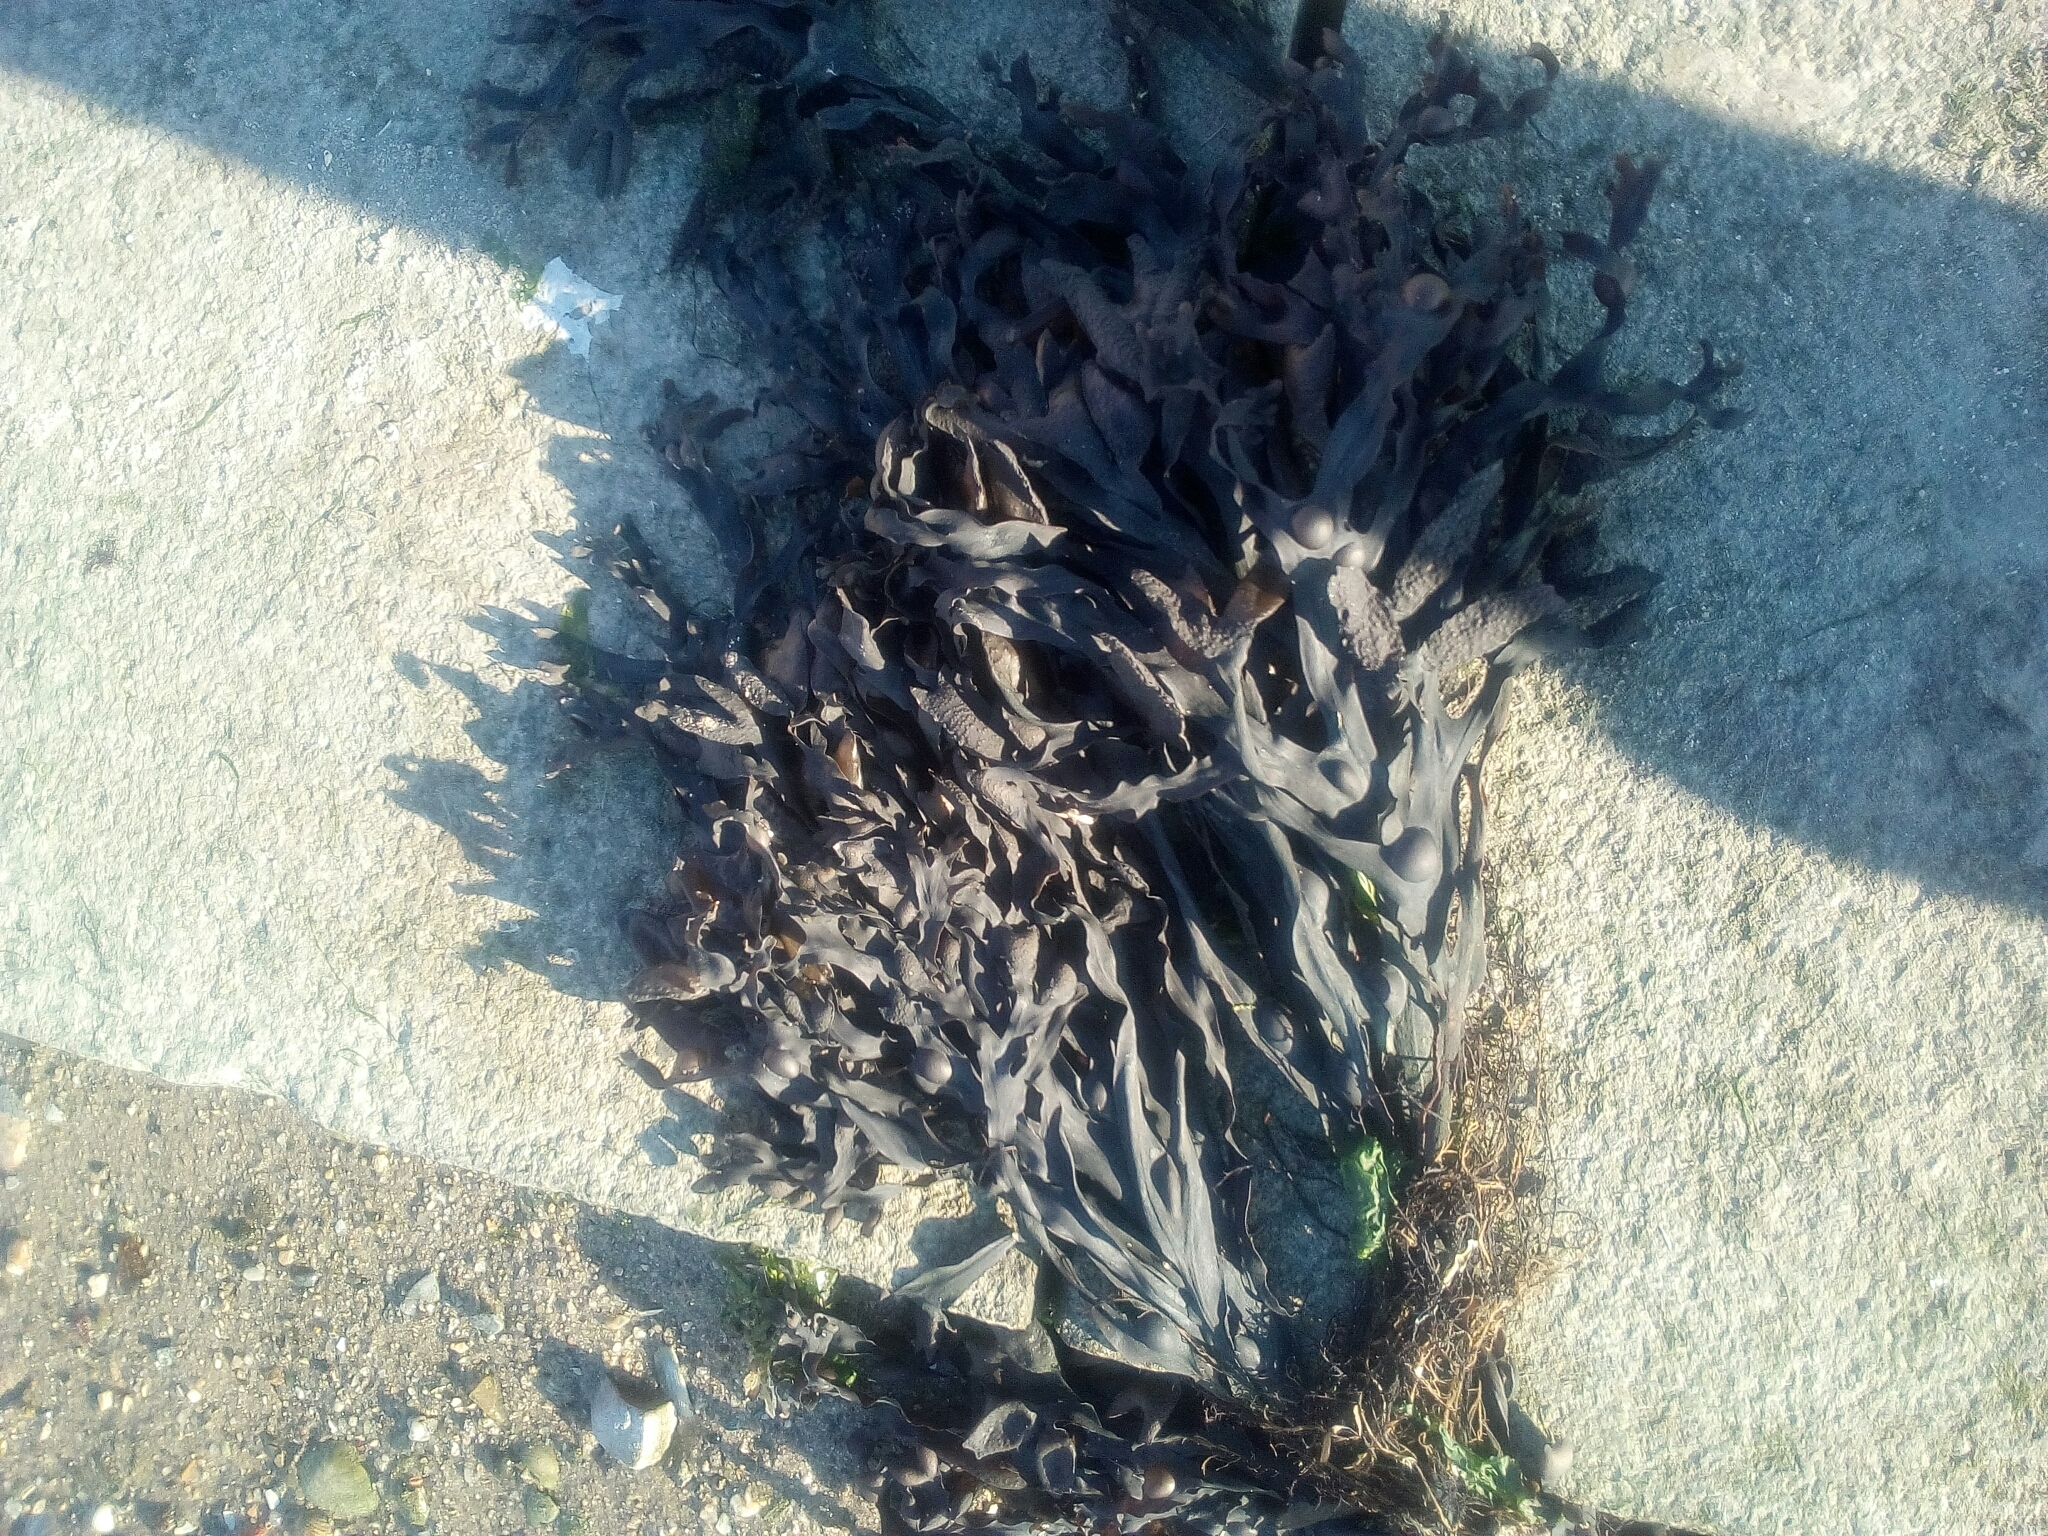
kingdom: Chromista
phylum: Ochrophyta
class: Phaeophyceae
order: Fucales
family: Fucaceae
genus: Fucus
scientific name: Fucus vesiculosus
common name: Bladder wrack
